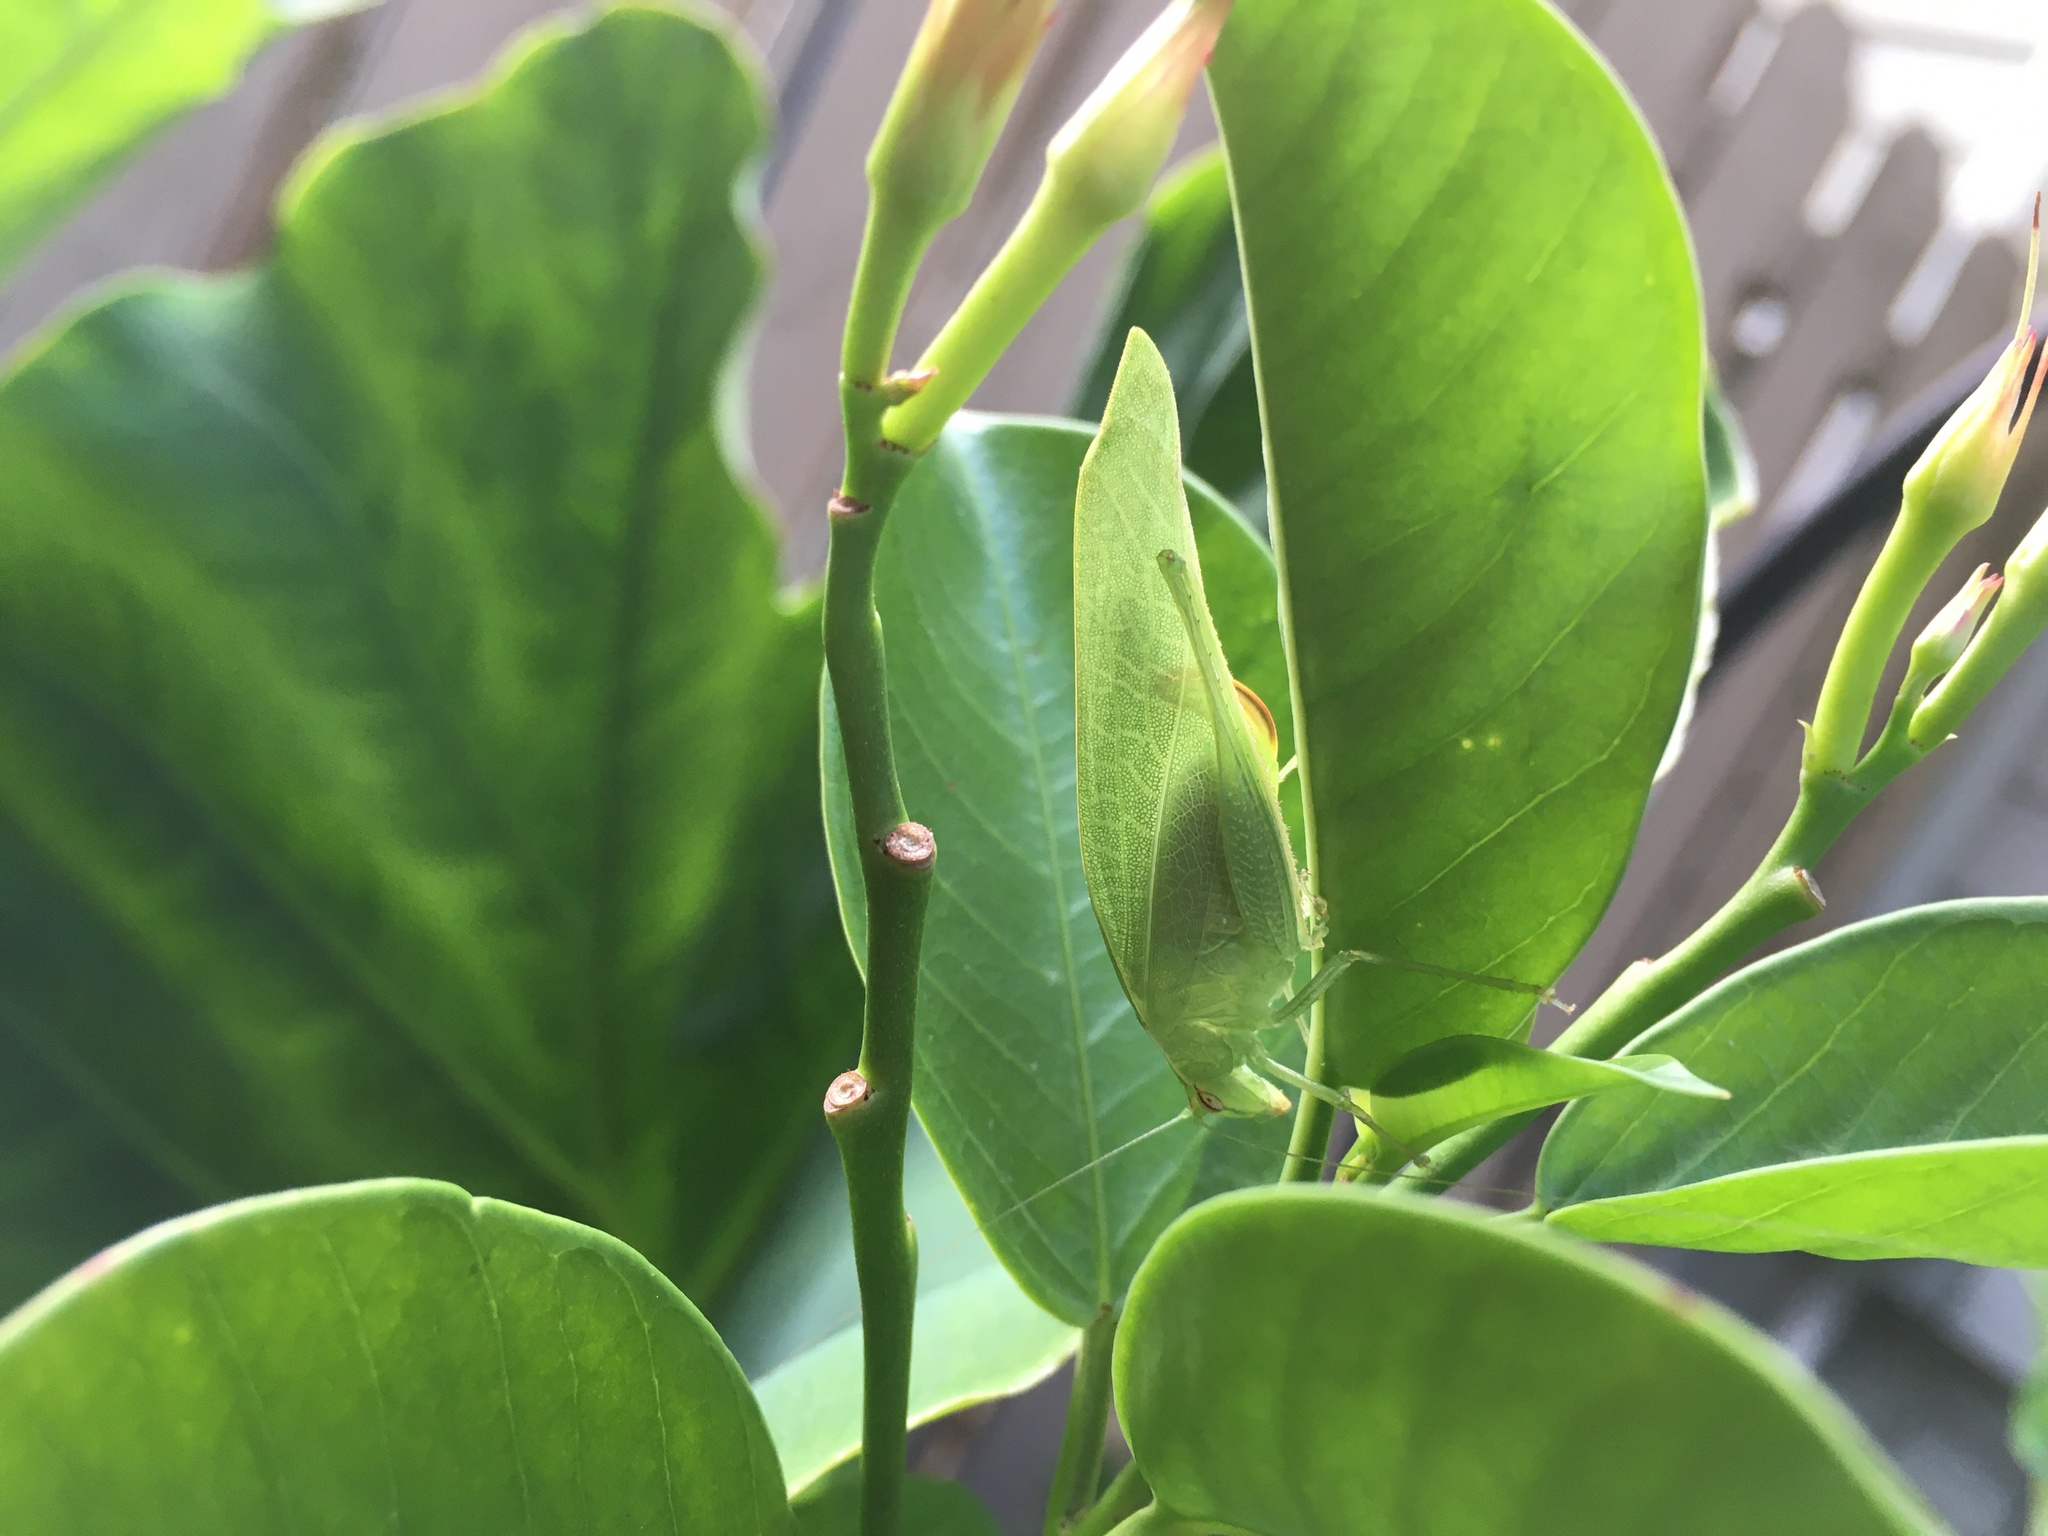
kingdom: Animalia
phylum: Arthropoda
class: Insecta
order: Orthoptera
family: Tettigoniidae
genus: Montezumina
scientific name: Montezumina modesta
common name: Modest katydid
